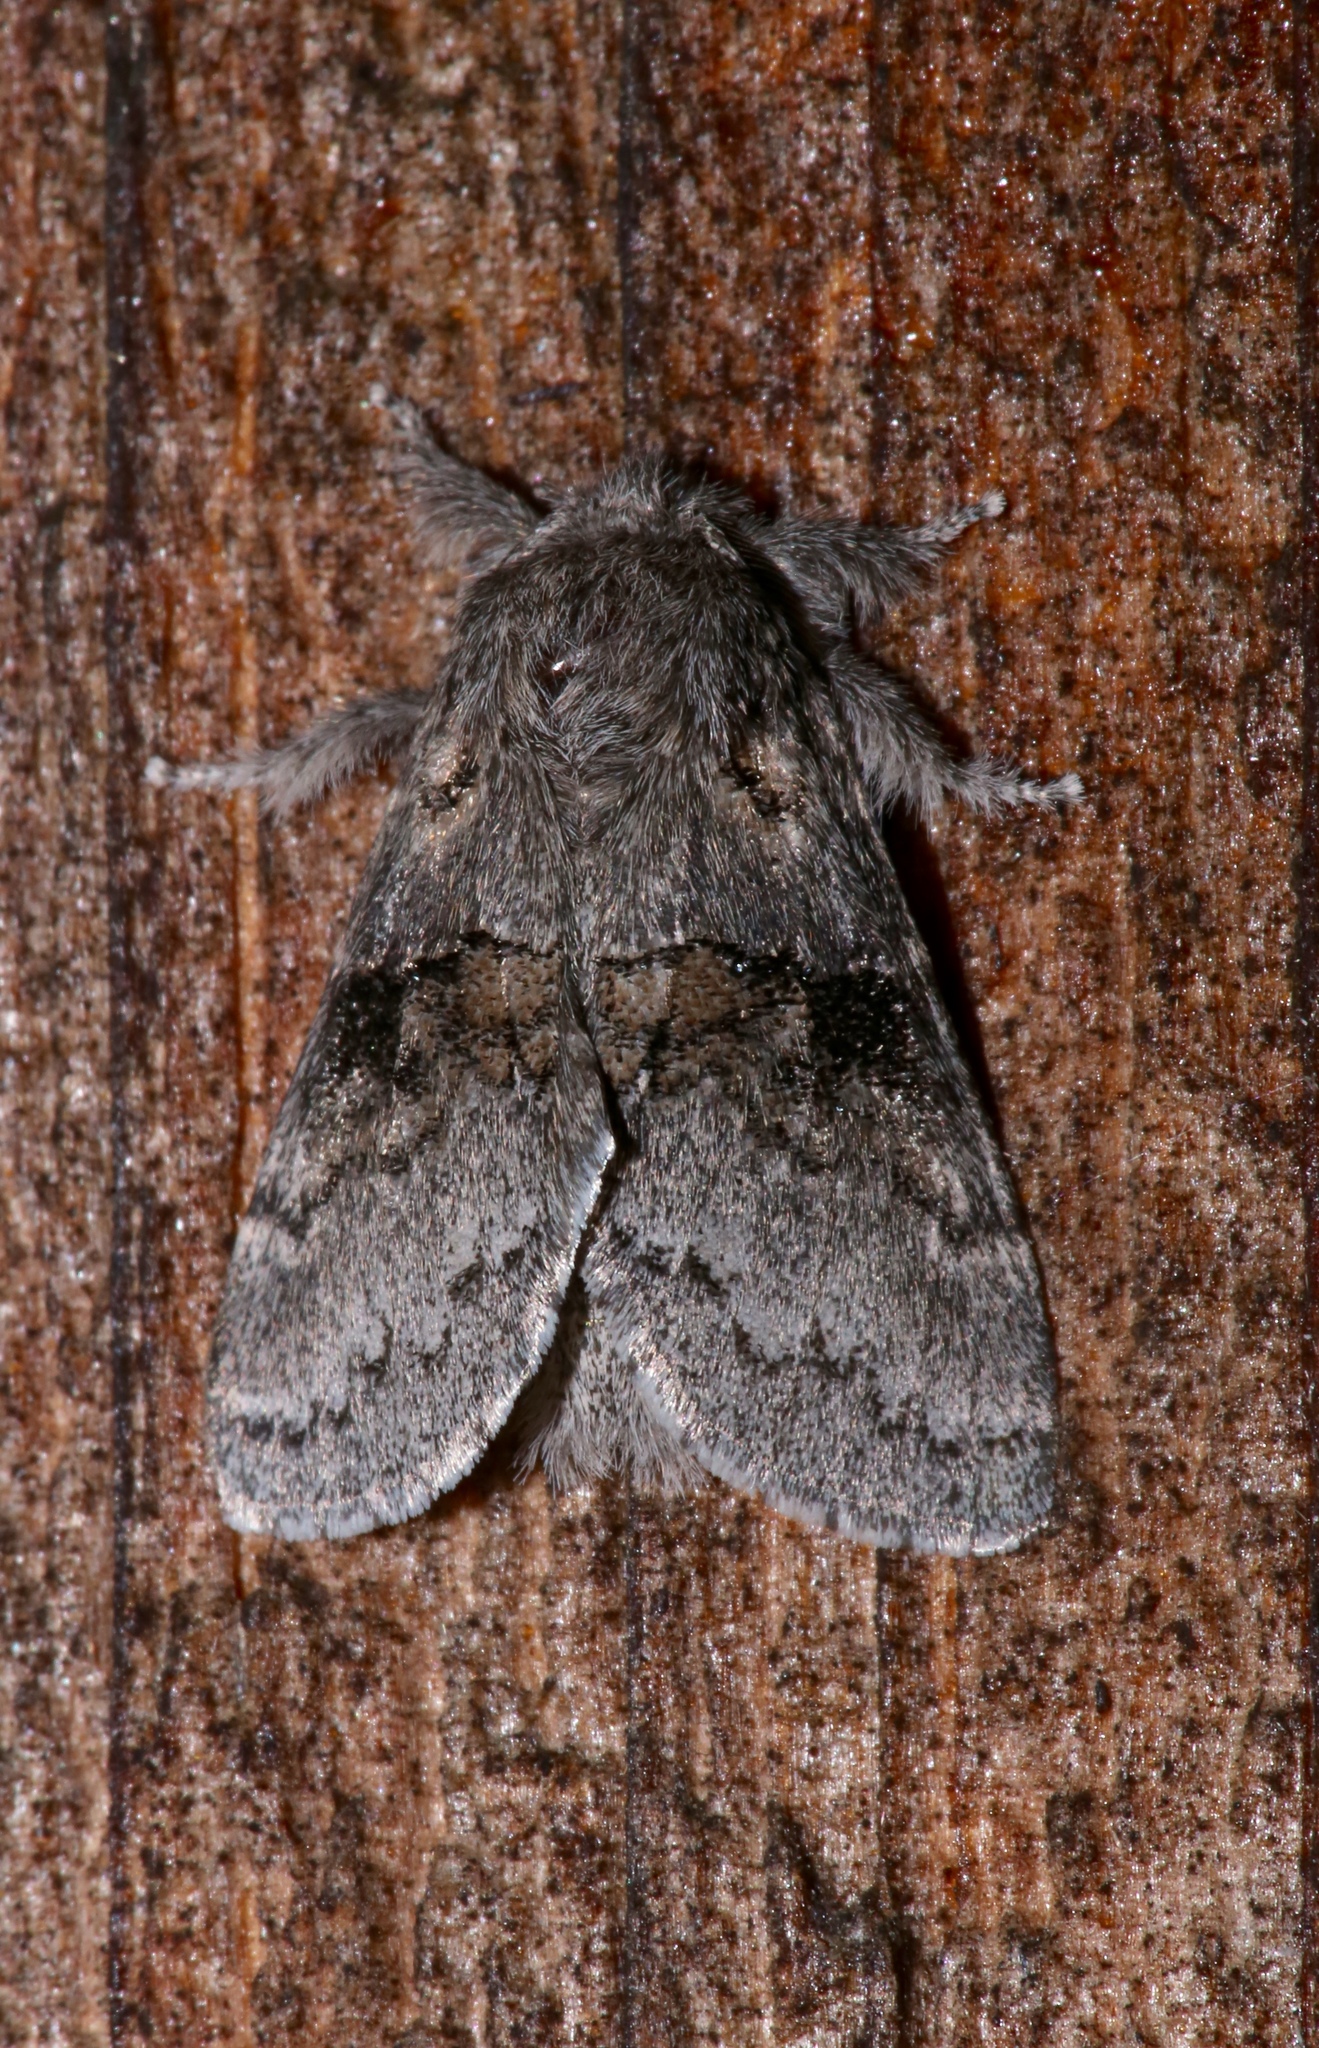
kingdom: Animalia
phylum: Arthropoda
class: Insecta
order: Lepidoptera
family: Notodontidae
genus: Gluphisia
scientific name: Gluphisia septentrionis
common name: Common gluphisia
